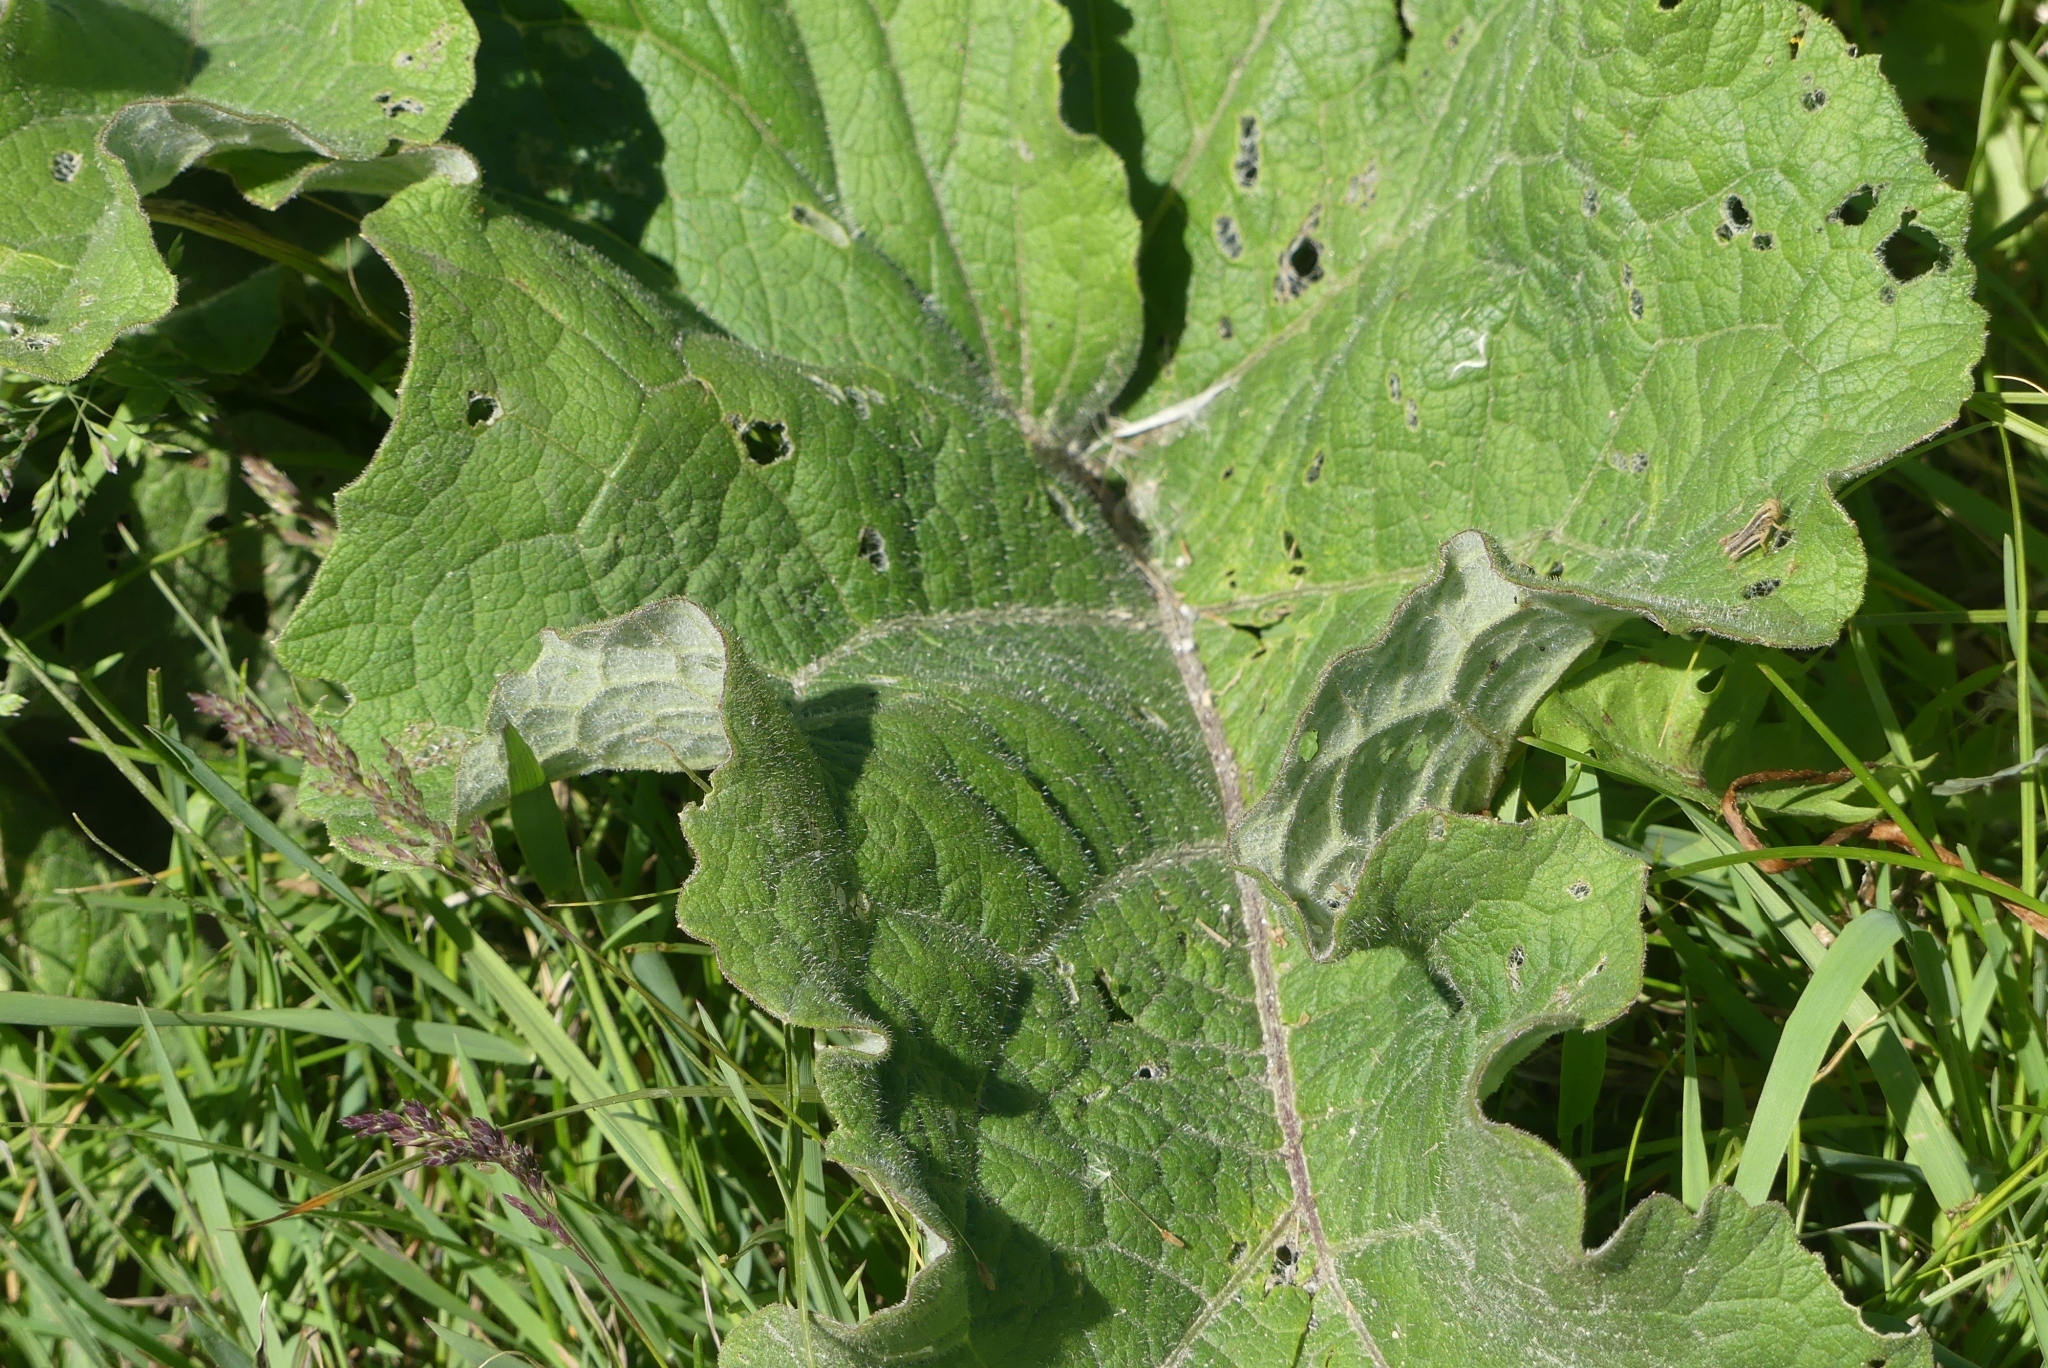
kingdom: Plantae
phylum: Tracheophyta
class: Magnoliopsida
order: Asterales
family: Asteraceae
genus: Arctium
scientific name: Arctium
